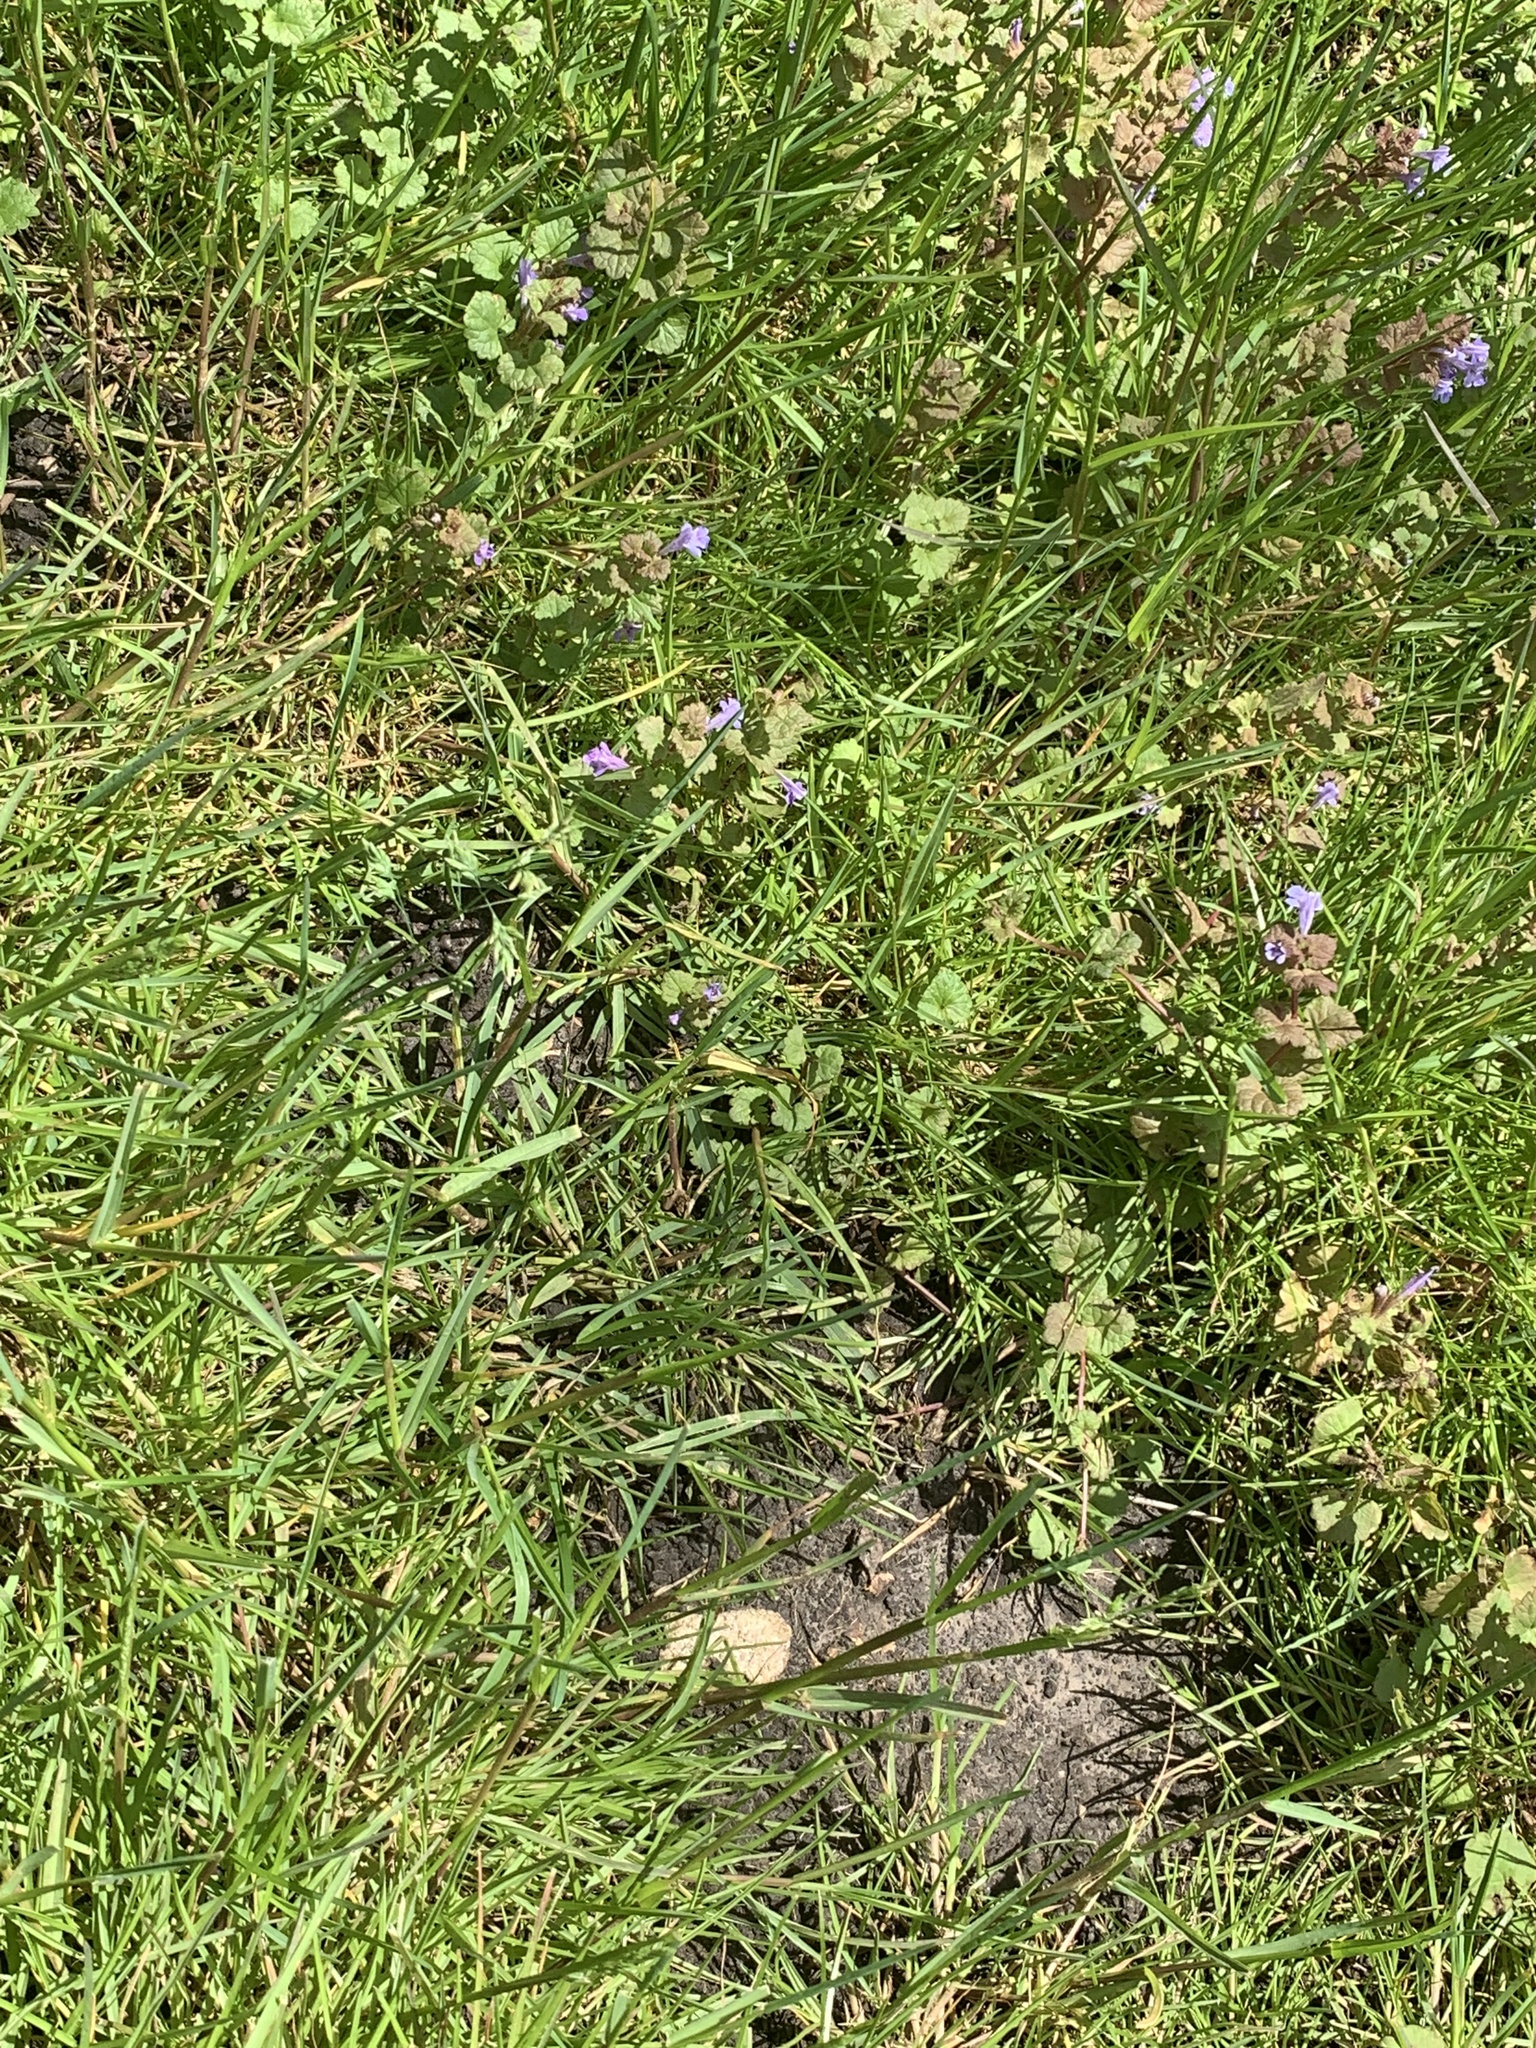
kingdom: Plantae
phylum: Tracheophyta
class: Magnoliopsida
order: Lamiales
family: Lamiaceae
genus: Glechoma
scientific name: Glechoma hederacea
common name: Ground ivy
